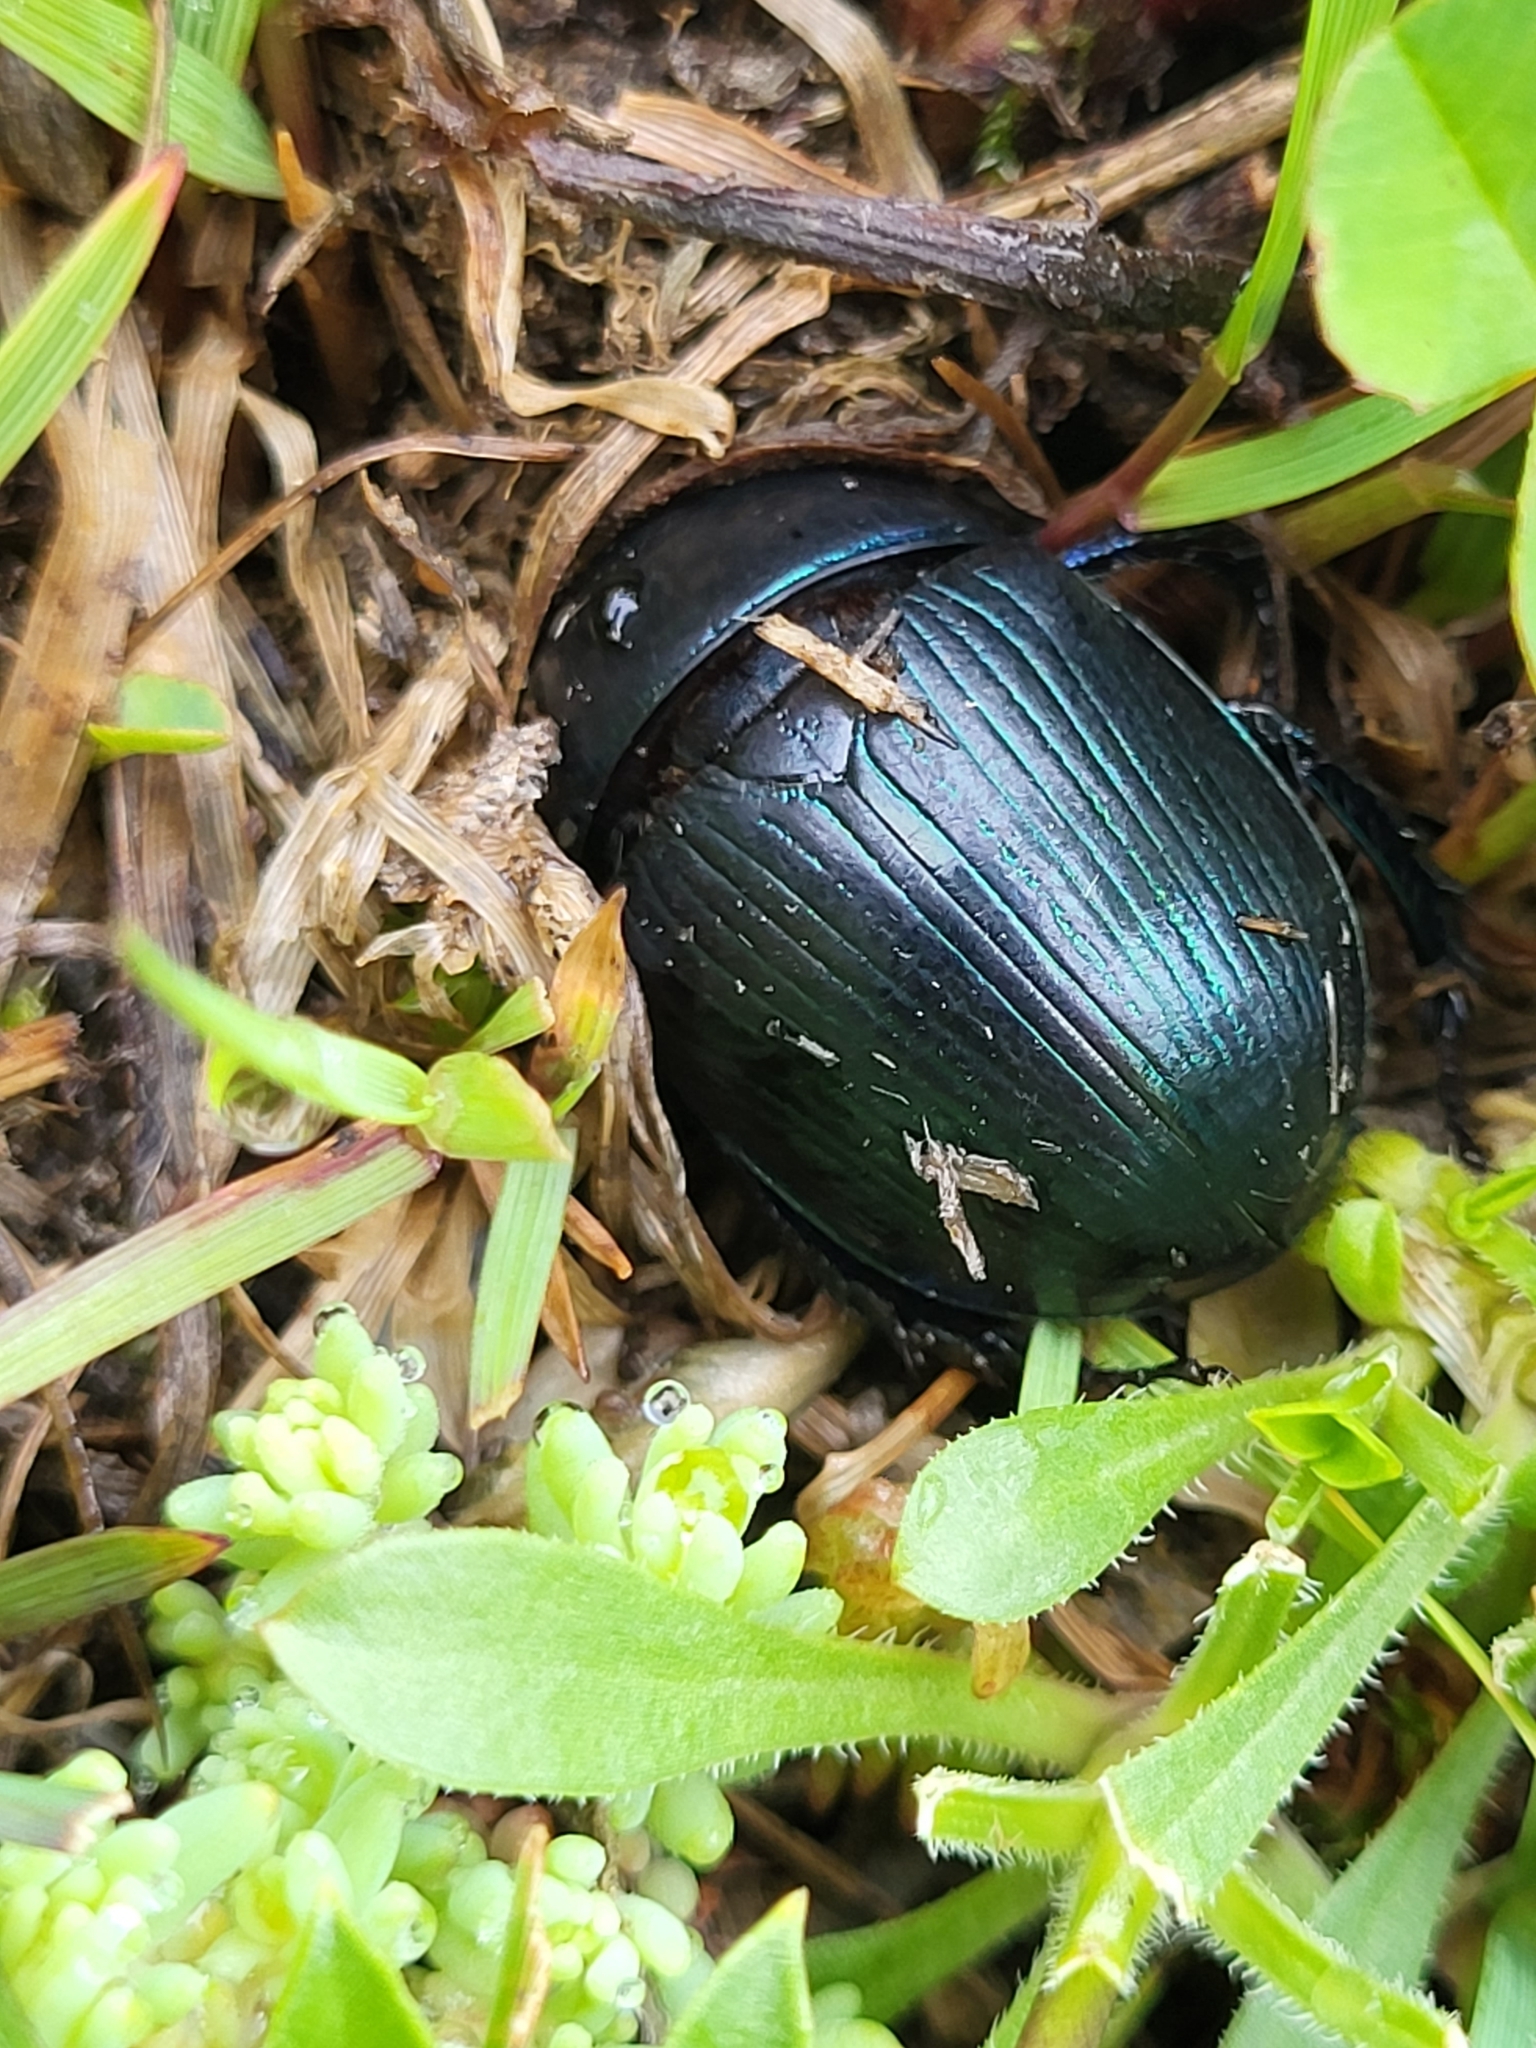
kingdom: Animalia
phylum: Arthropoda
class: Insecta
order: Coleoptera
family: Geotrupidae
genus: Geotrupes
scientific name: Geotrupes olgae
